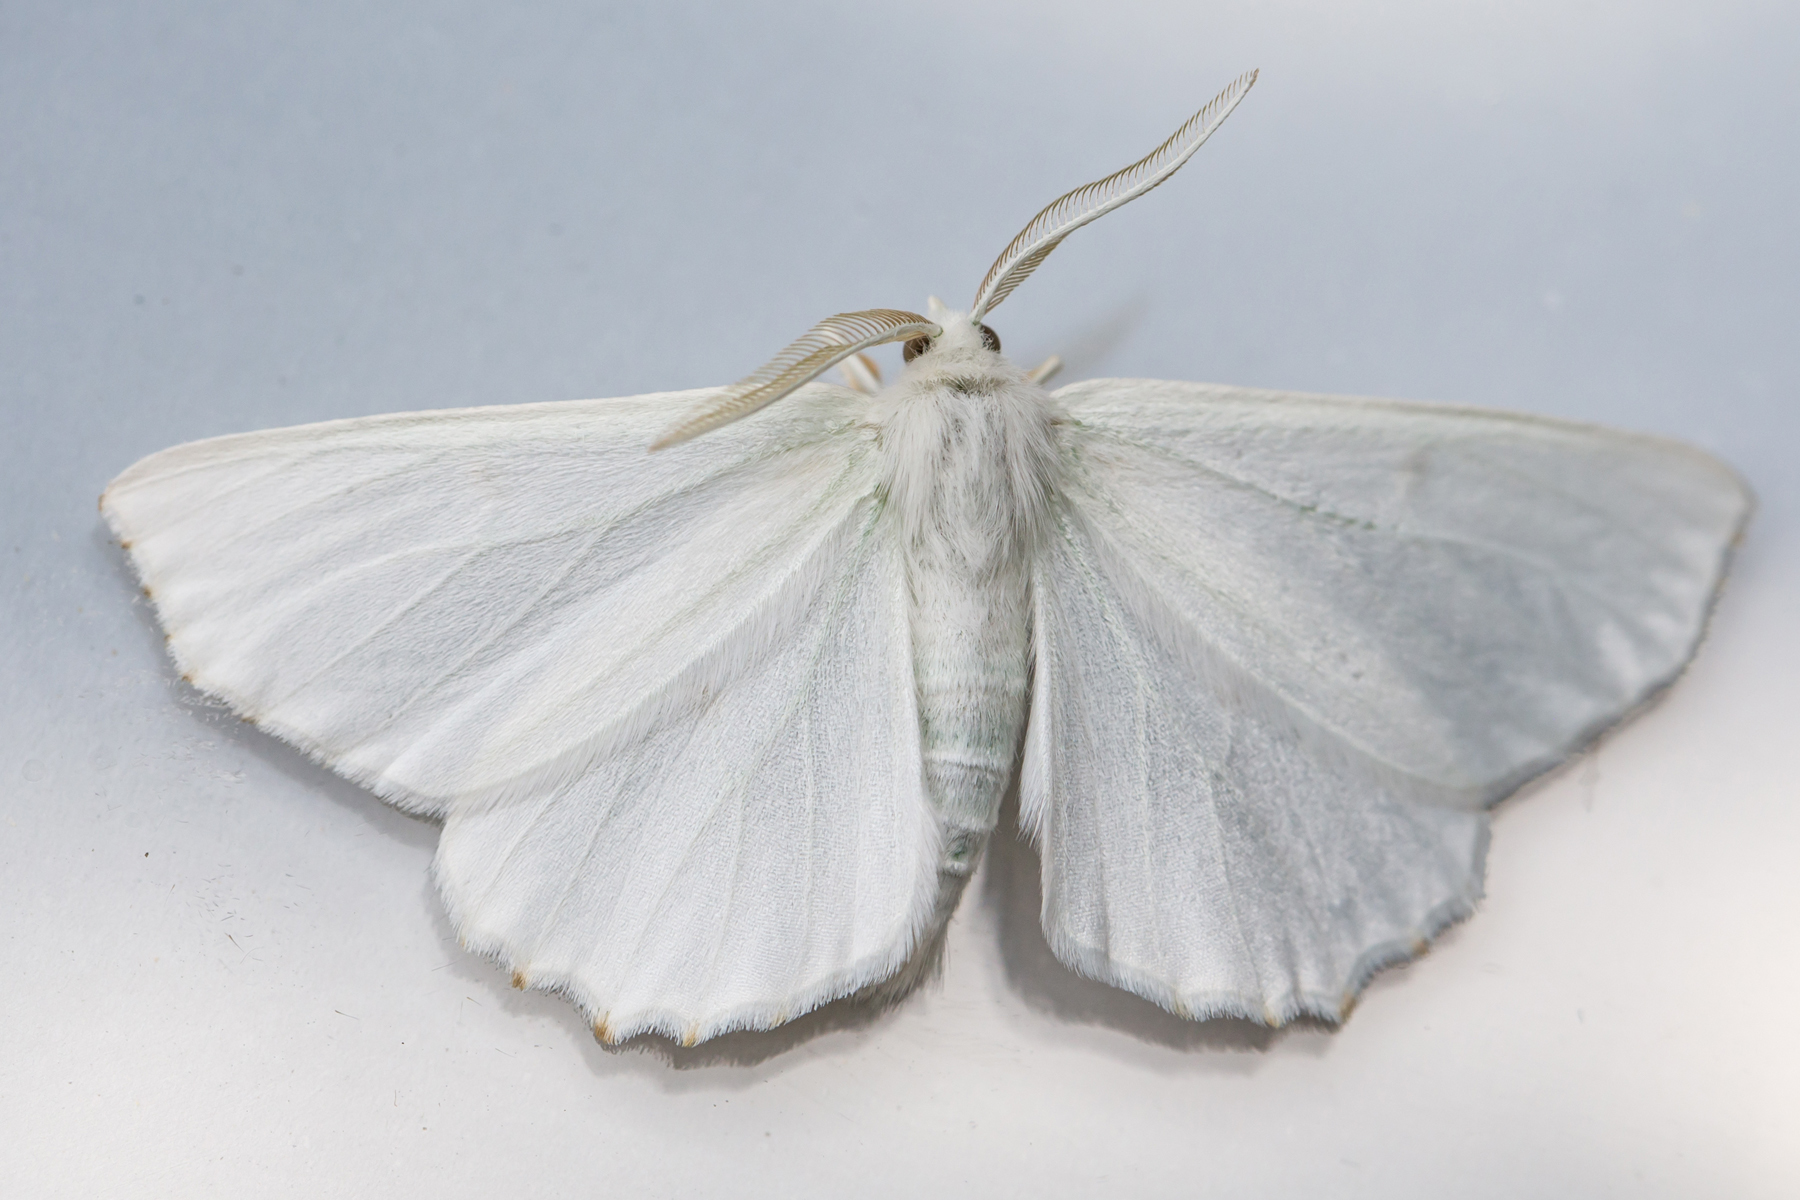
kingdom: Animalia
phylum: Arthropoda
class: Insecta
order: Lepidoptera
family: Geometridae
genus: Ennomos
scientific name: Ennomos subsignaria
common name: Elm spanworm
